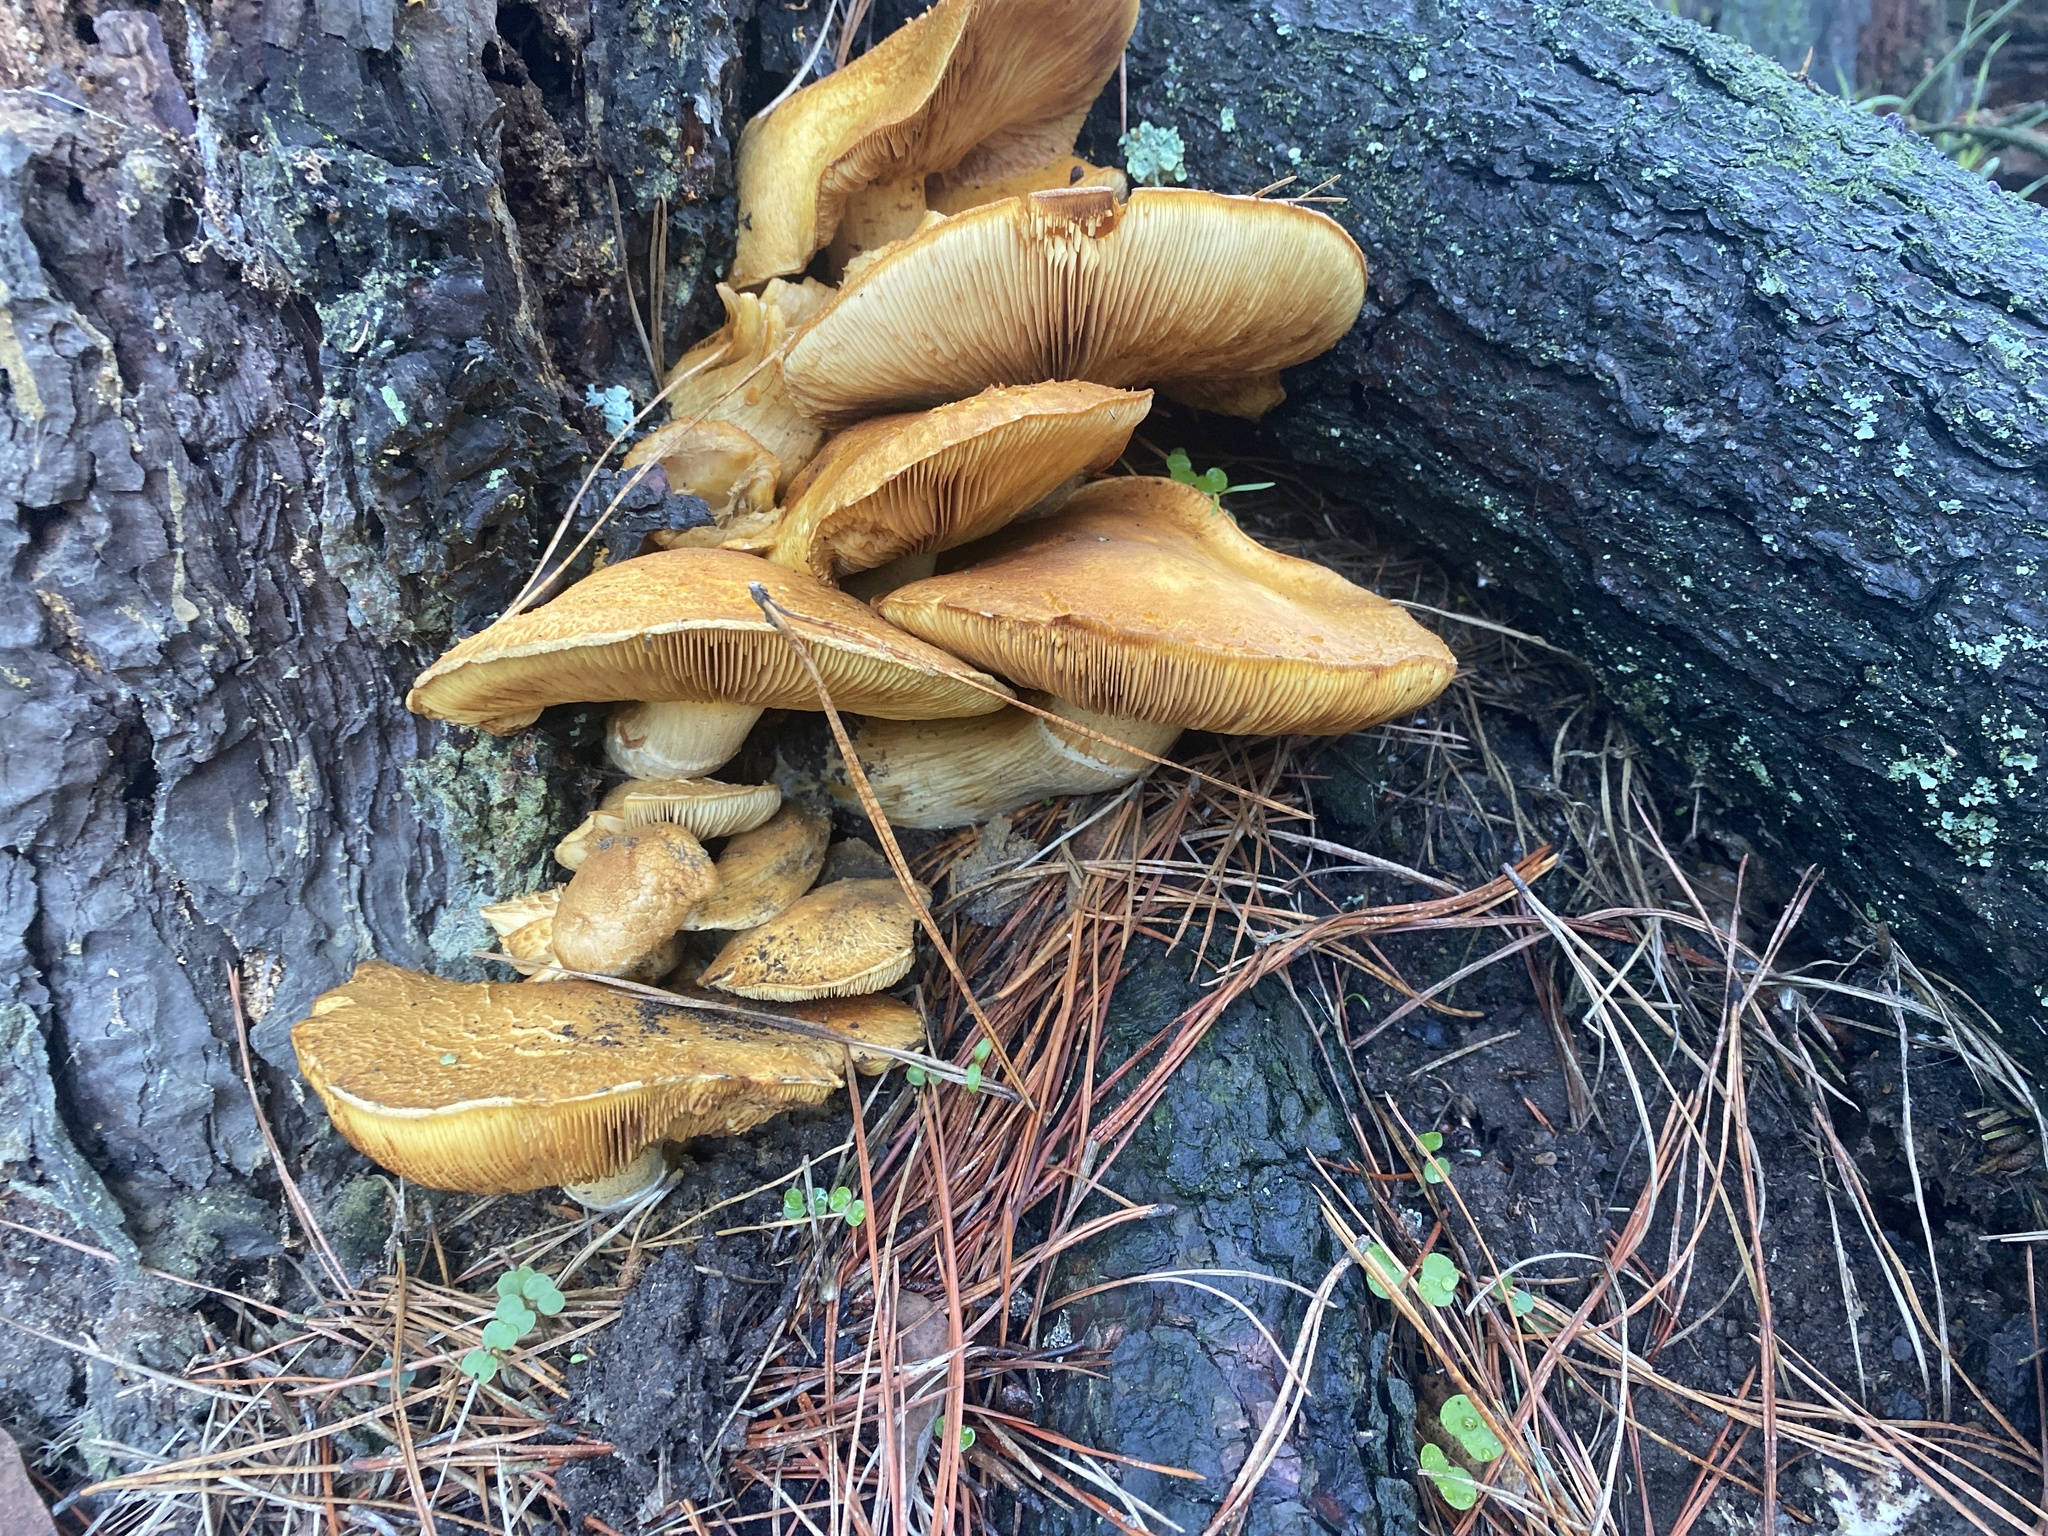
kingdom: Fungi
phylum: Basidiomycota
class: Agaricomycetes
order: Agaricales
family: Hymenogastraceae
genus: Gymnopilus
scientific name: Gymnopilus ventricosus
